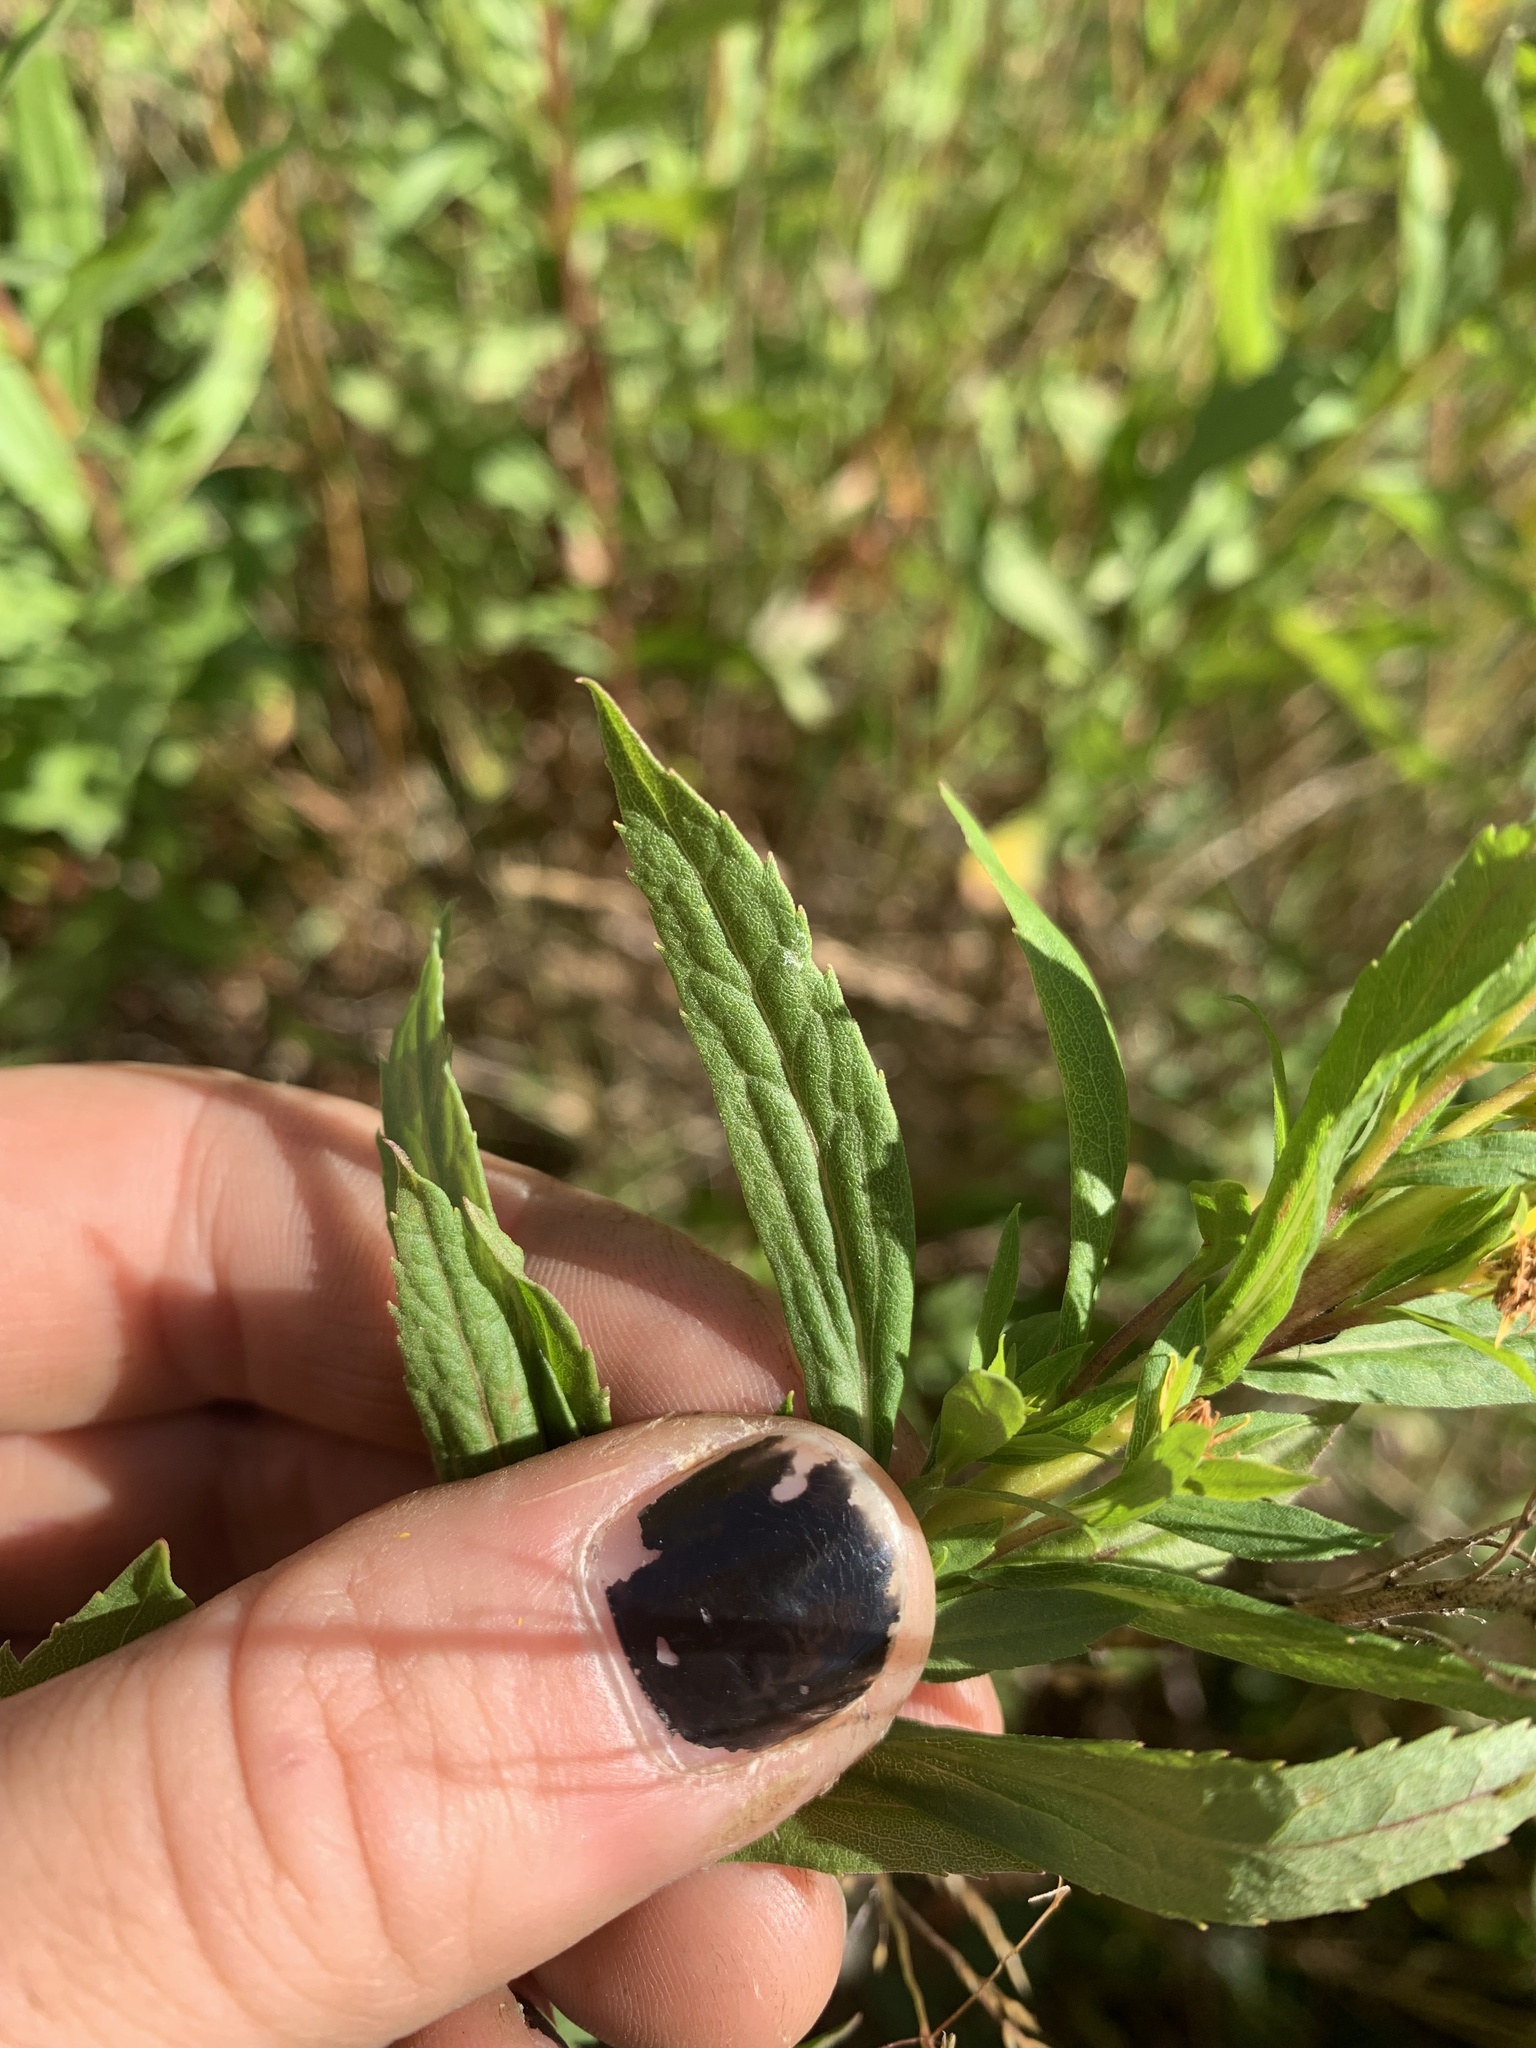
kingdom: Plantae
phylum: Tracheophyta
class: Magnoliopsida
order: Asterales
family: Asteraceae
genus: Solidago
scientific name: Solidago lepida
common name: Western canada goldenrod
